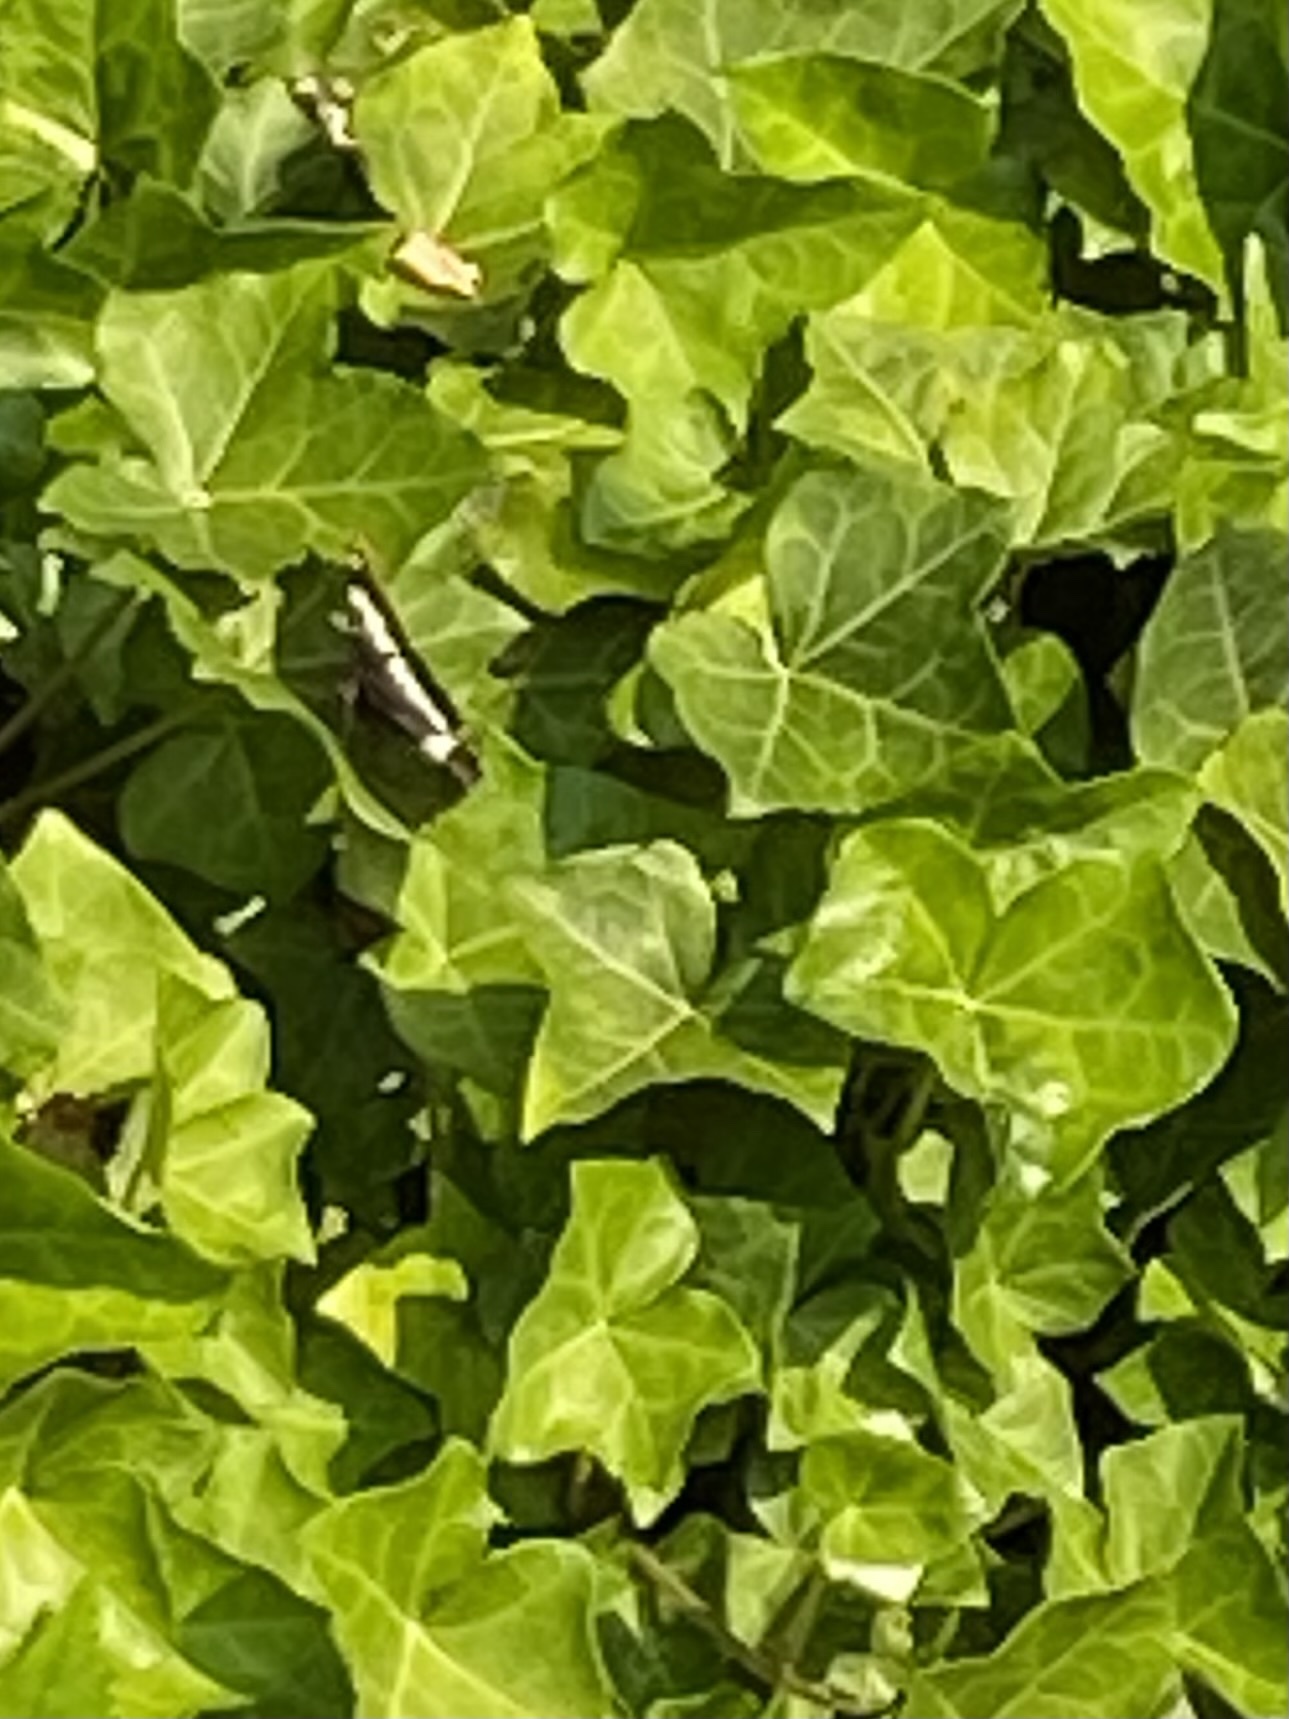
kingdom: Animalia
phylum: Arthropoda
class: Insecta
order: Lepidoptera
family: Nymphalidae
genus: Limenitis
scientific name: Limenitis lorquini
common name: Lorquin's admiral
